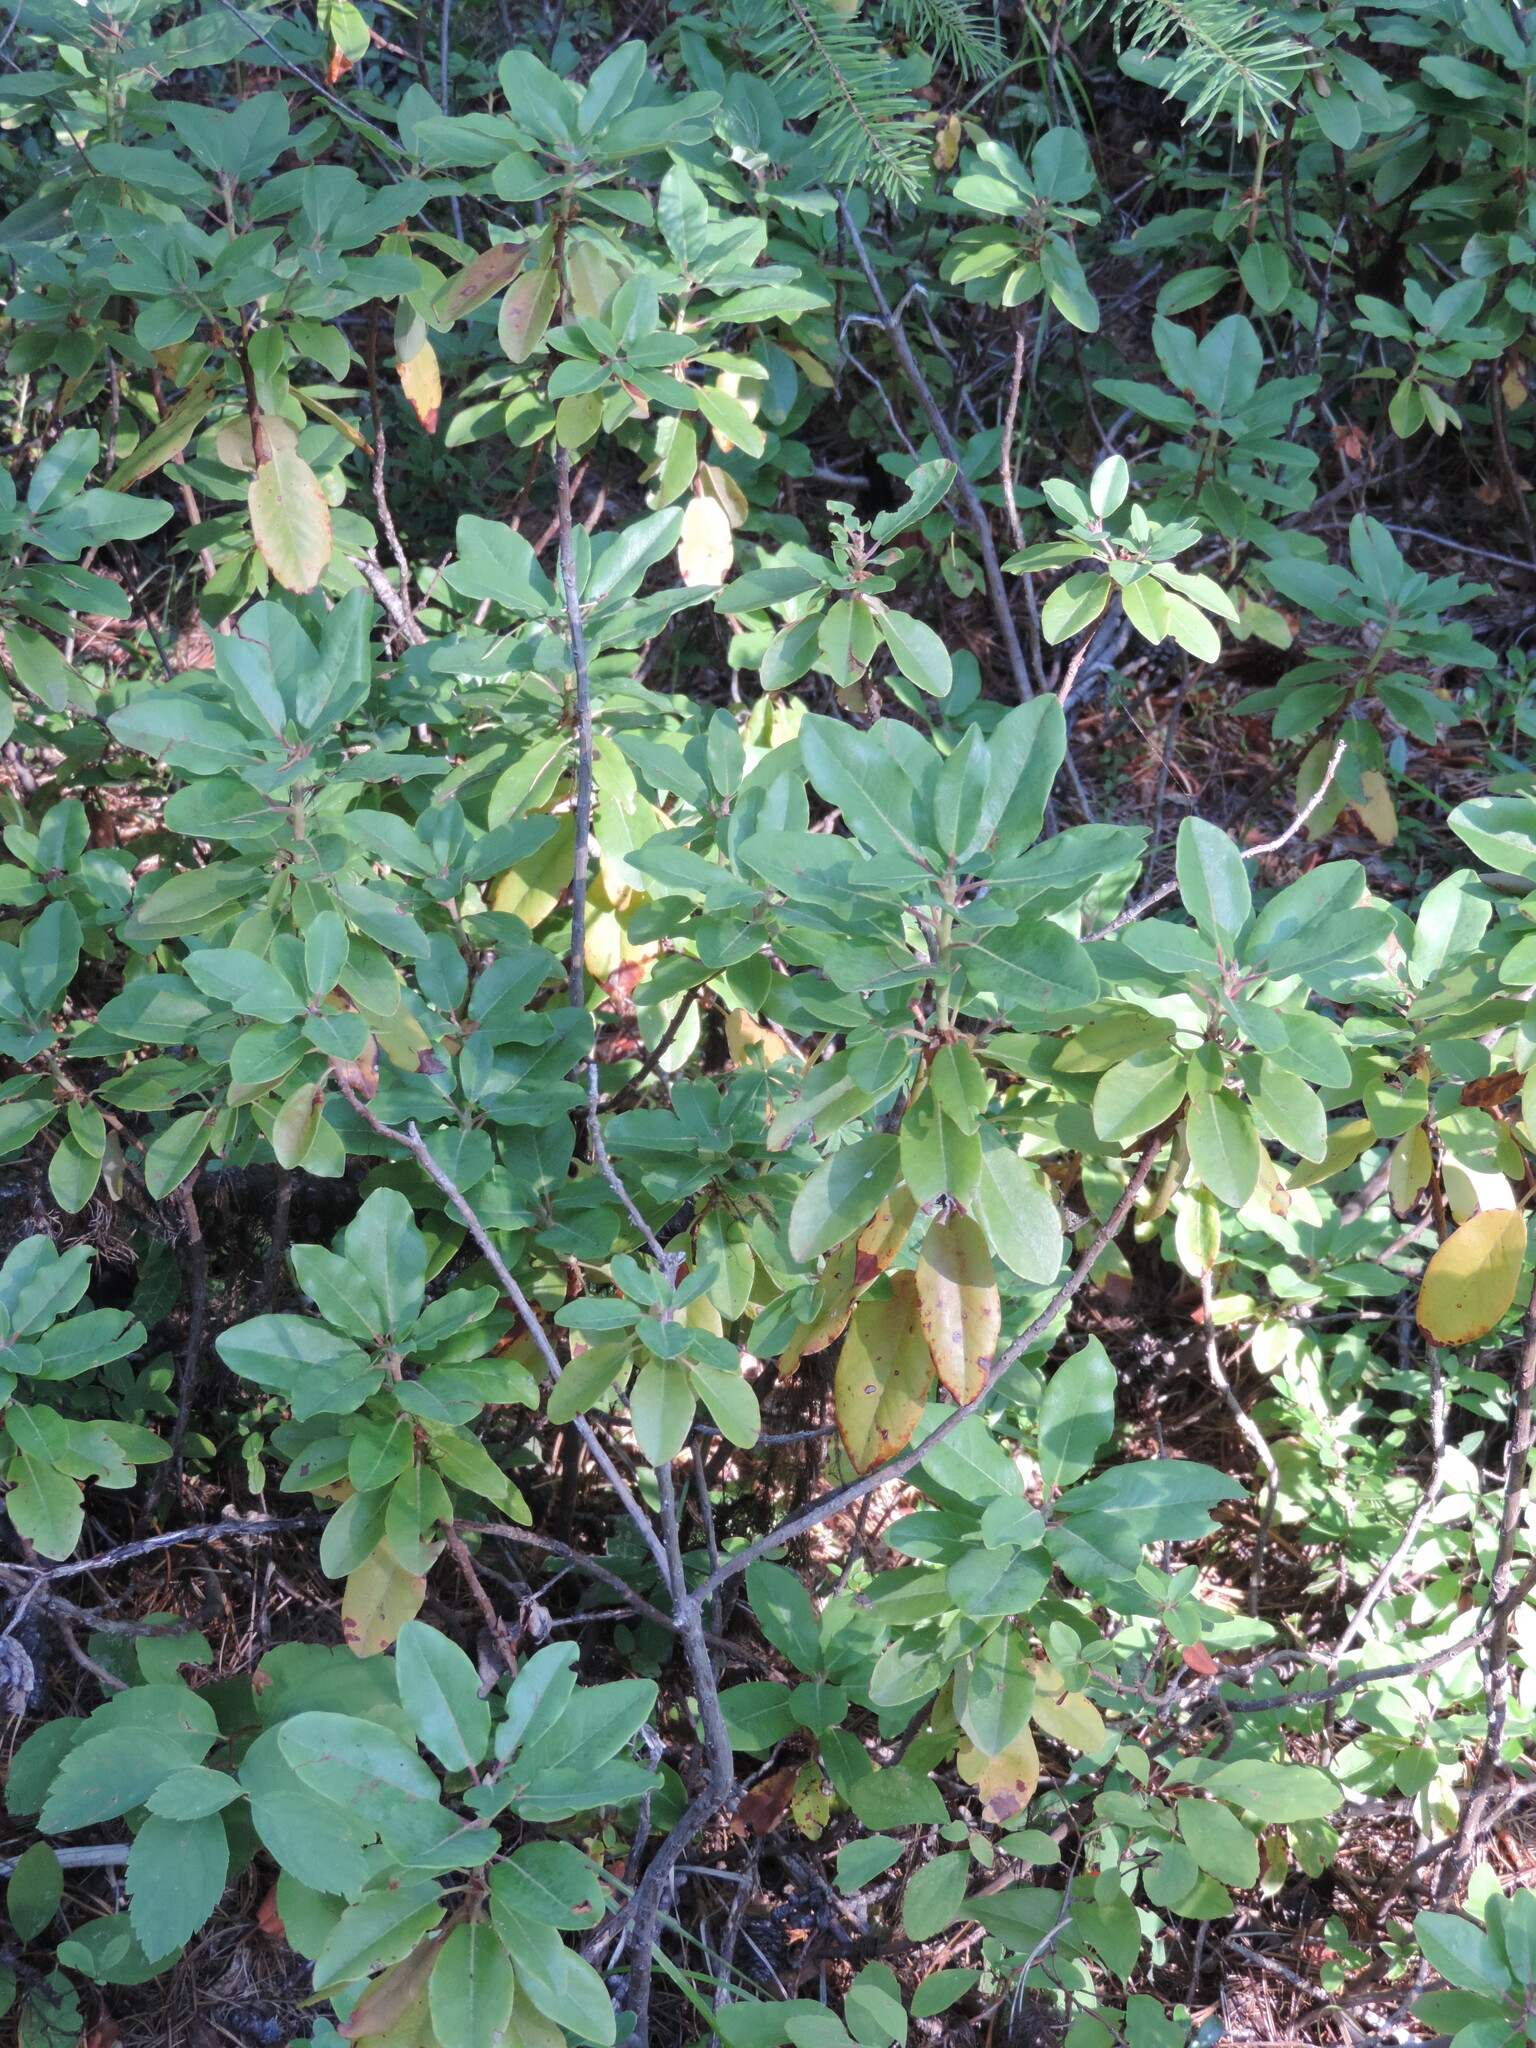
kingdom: Plantae
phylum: Tracheophyta
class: Magnoliopsida
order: Ericales
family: Ericaceae
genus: Rhododendron
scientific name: Rhododendron columbianum
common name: Western labrador tea
